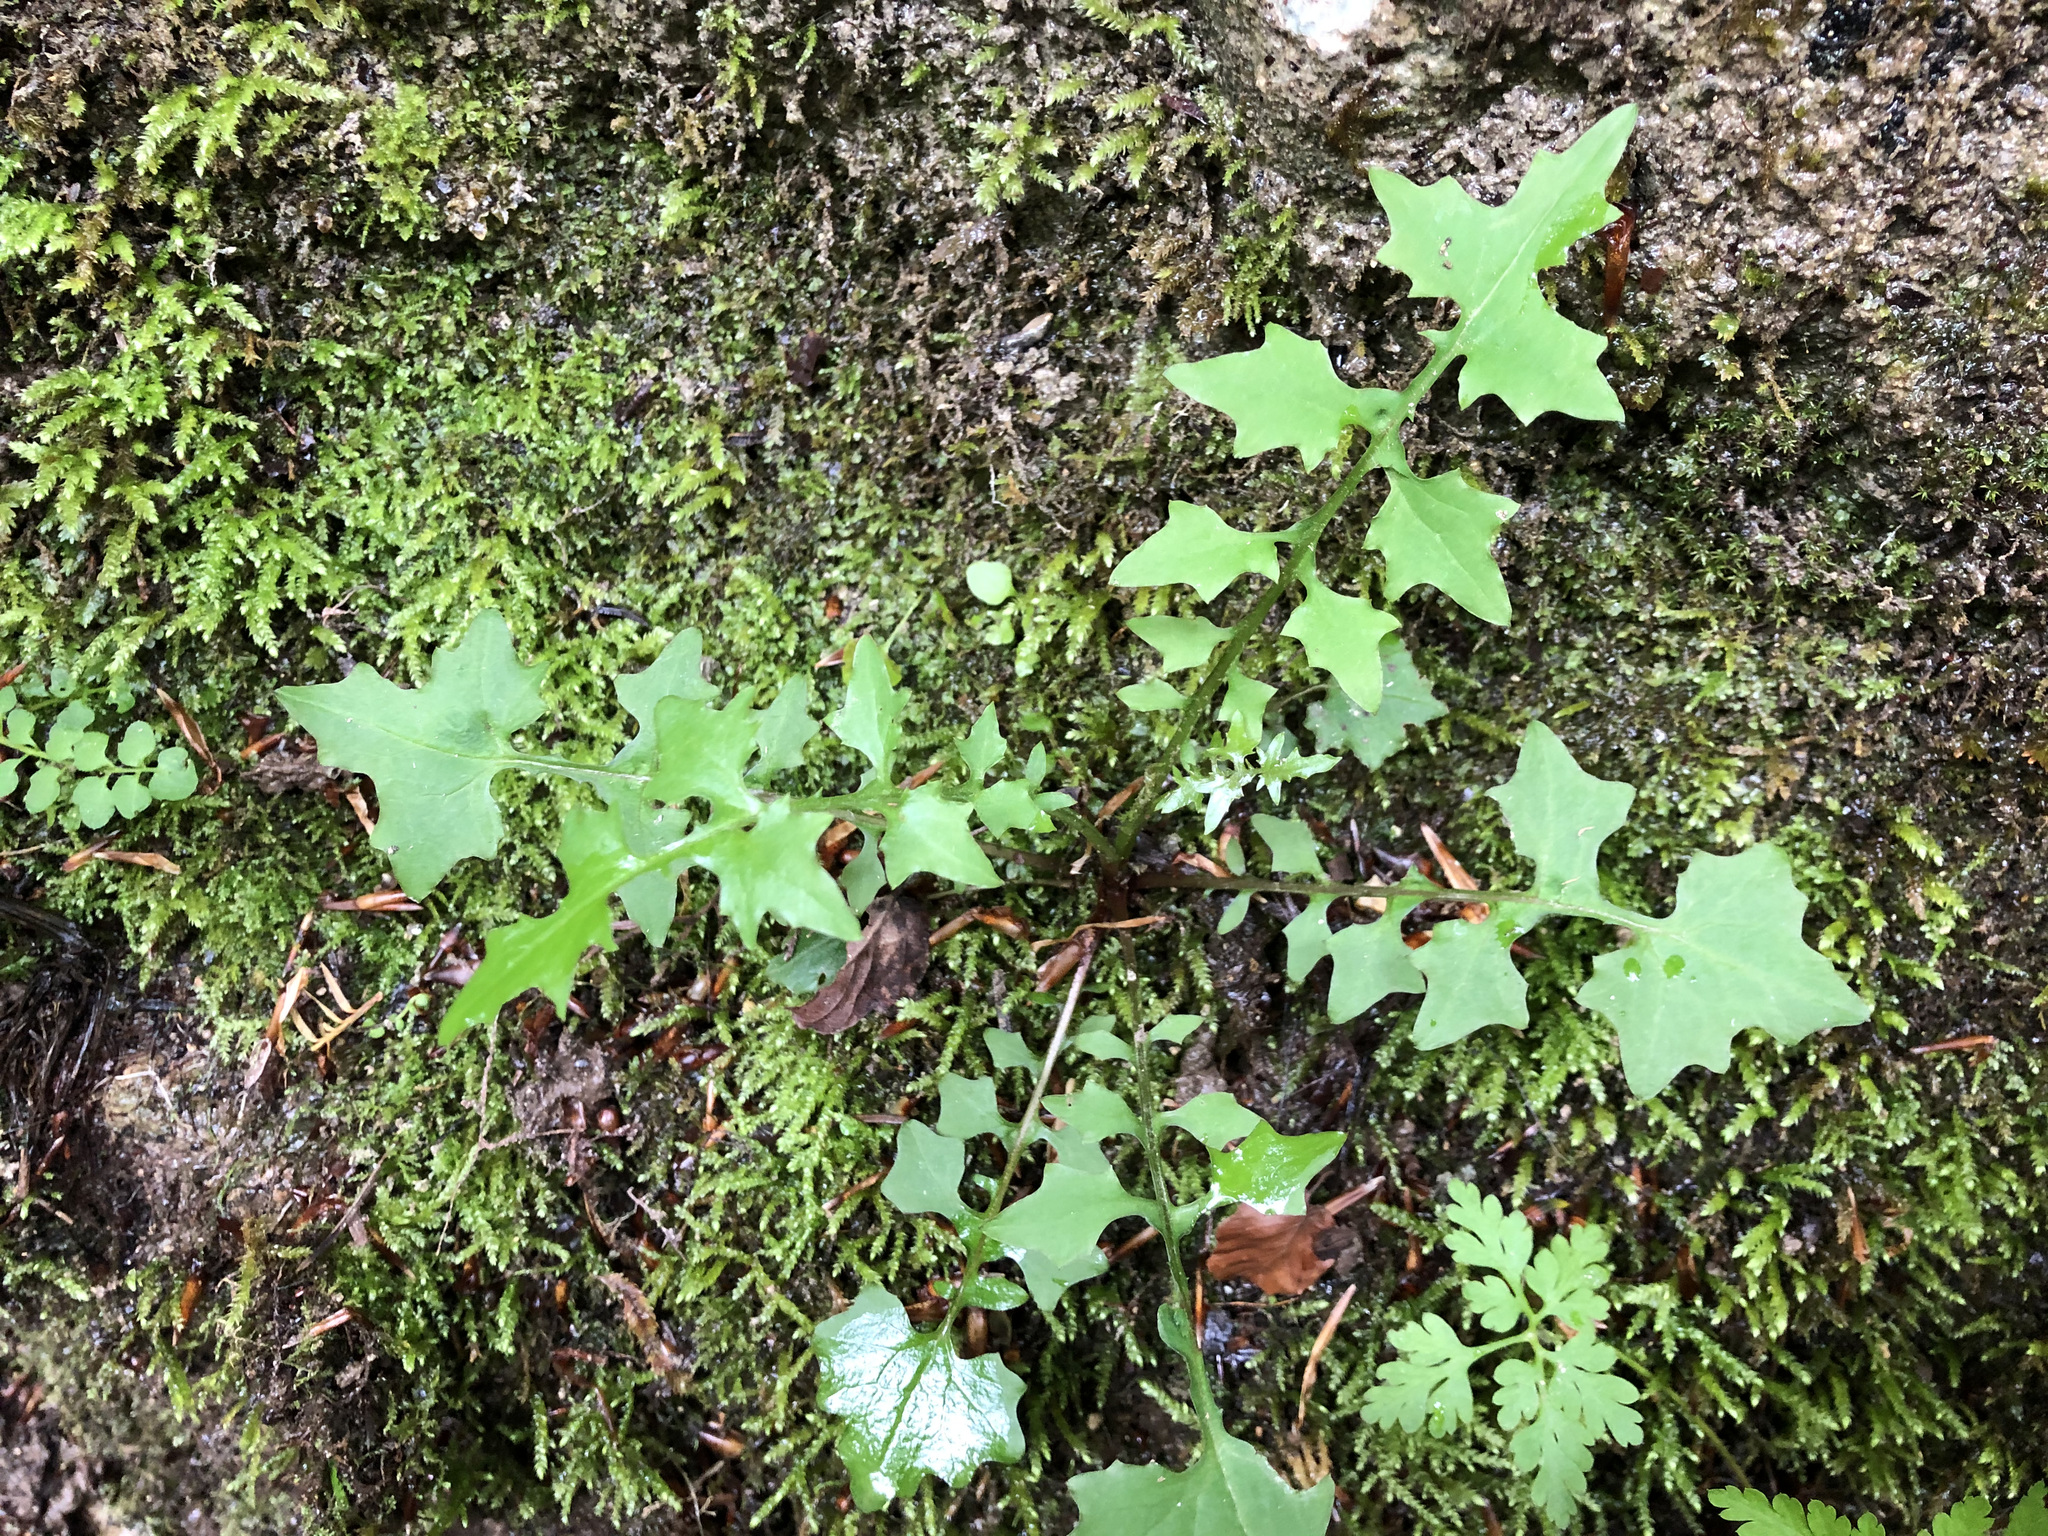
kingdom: Plantae
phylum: Tracheophyta
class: Magnoliopsida
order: Asterales
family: Asteraceae
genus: Mycelis
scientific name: Mycelis muralis
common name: Wall lettuce
